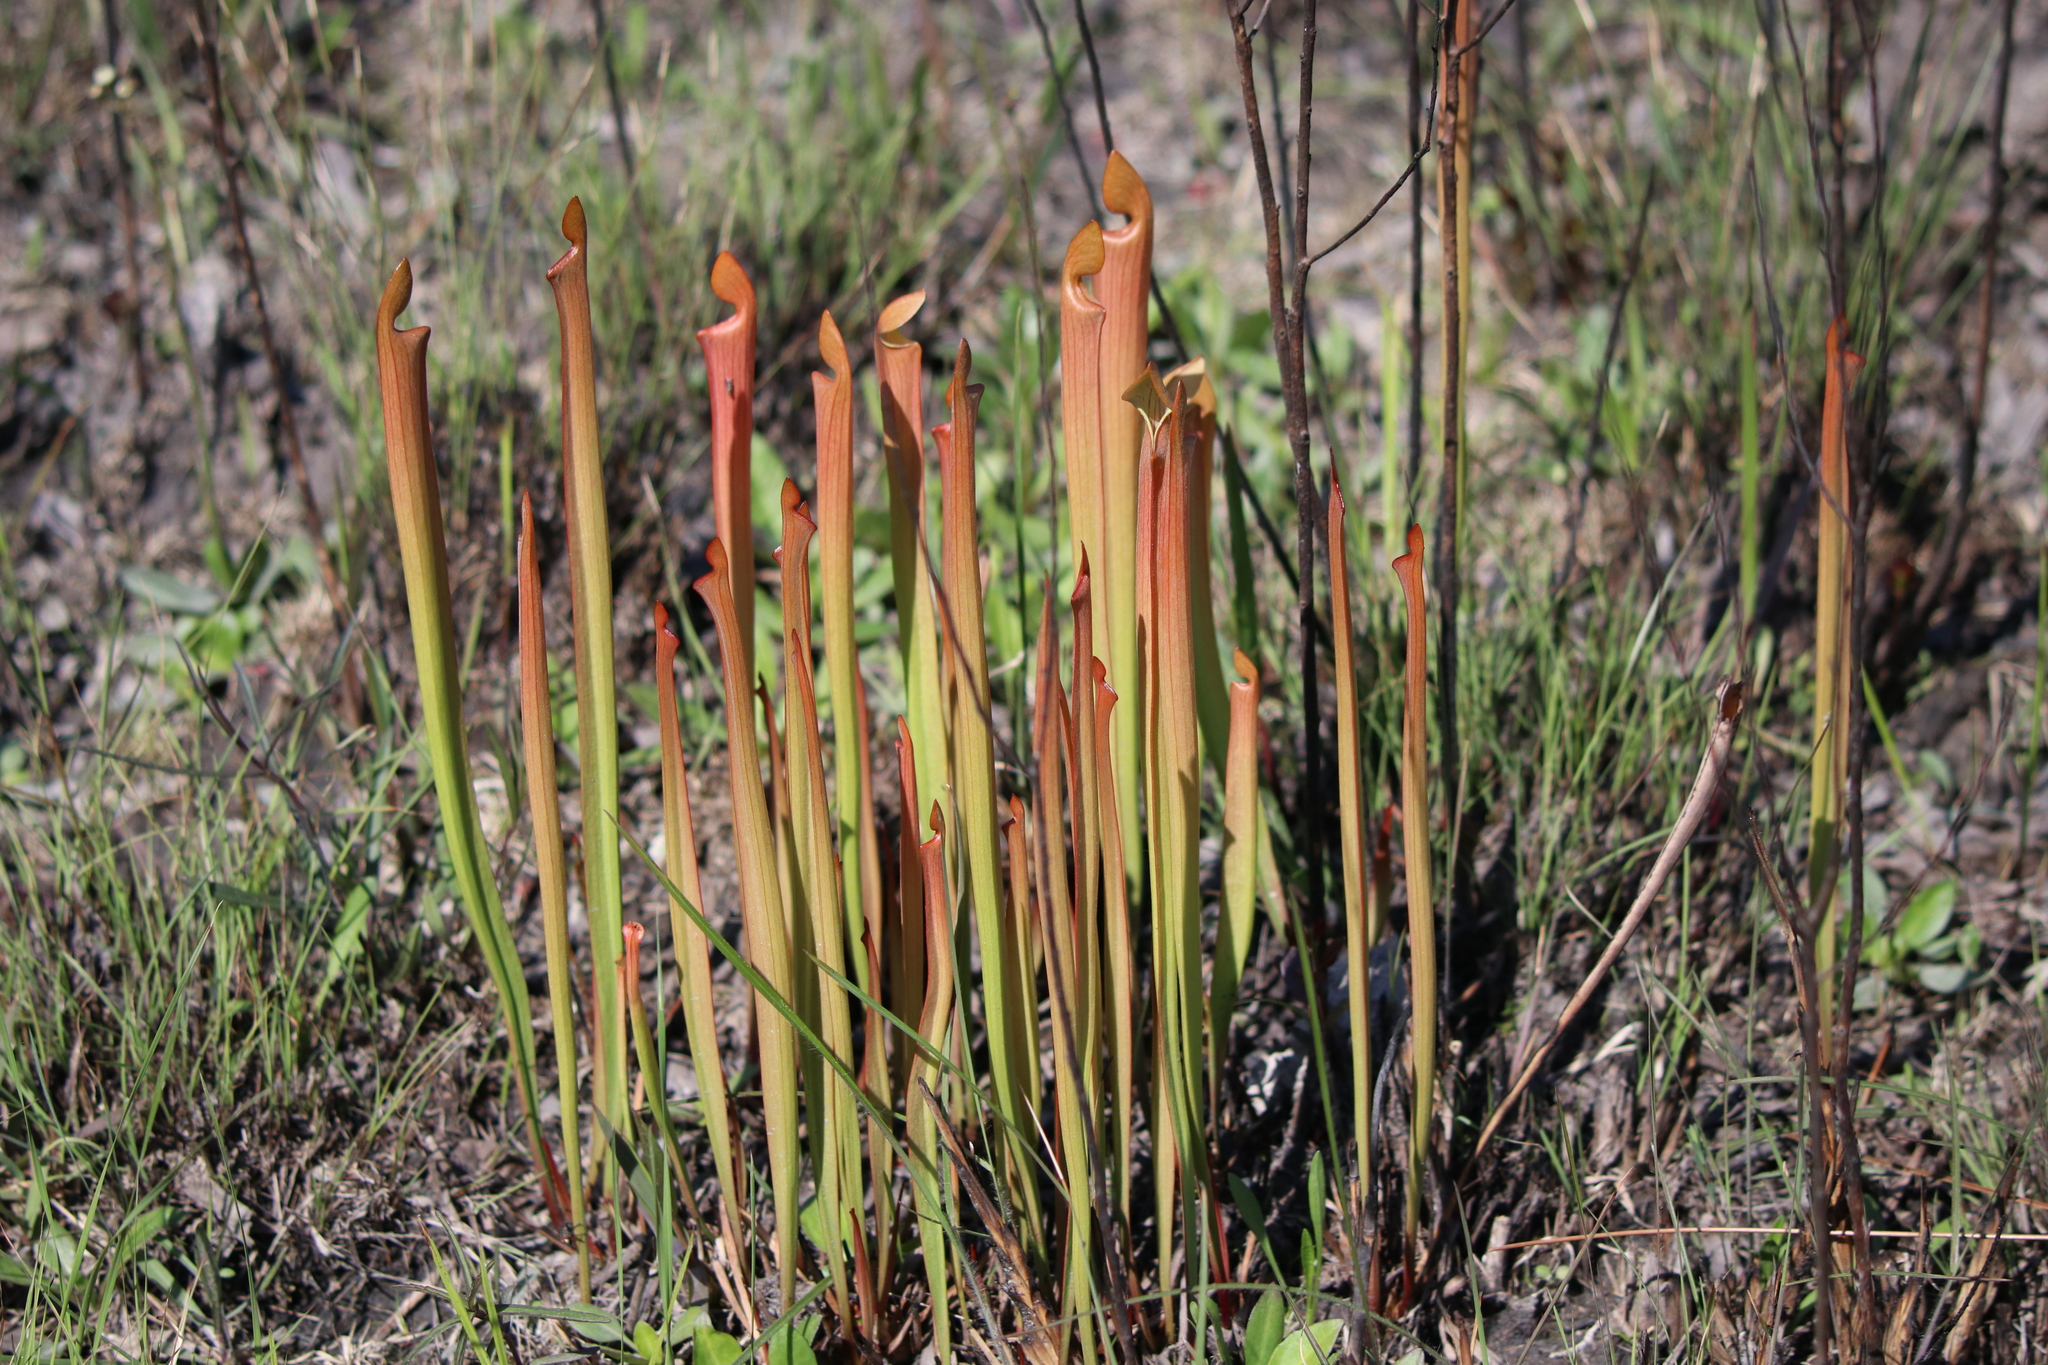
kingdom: Plantae
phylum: Tracheophyta
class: Magnoliopsida
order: Ericales
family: Sarraceniaceae
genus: Sarracenia
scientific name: Sarracenia alata
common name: Yellow trumpets
